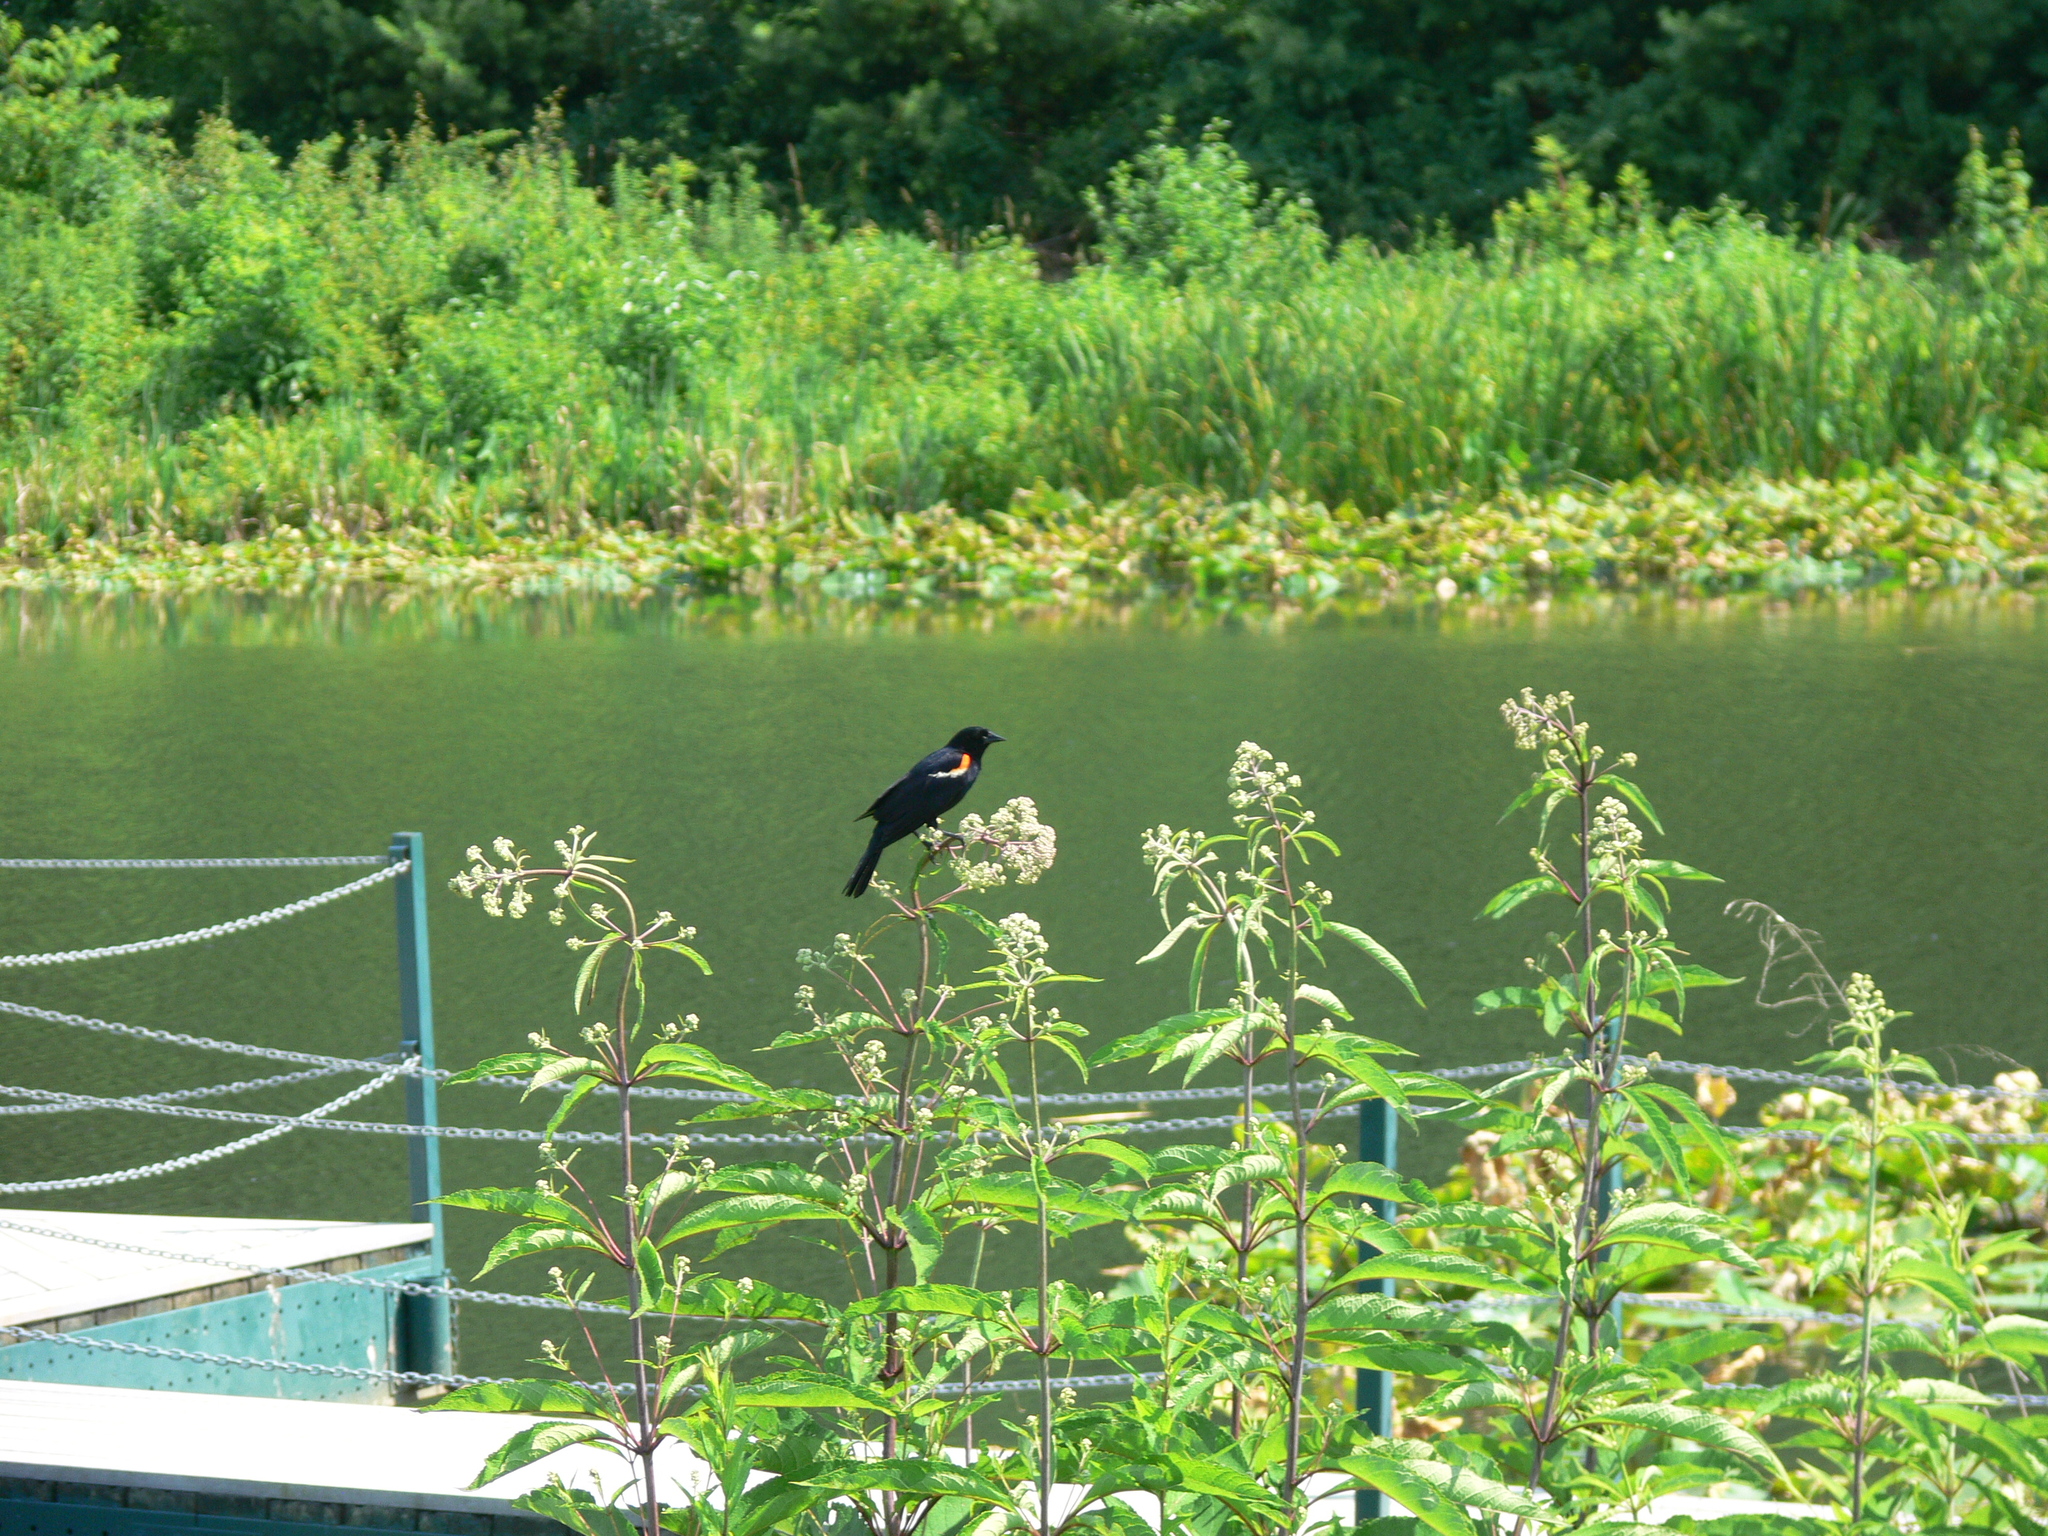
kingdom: Animalia
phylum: Chordata
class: Aves
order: Passeriformes
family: Icteridae
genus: Agelaius
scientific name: Agelaius phoeniceus
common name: Red-winged blackbird
